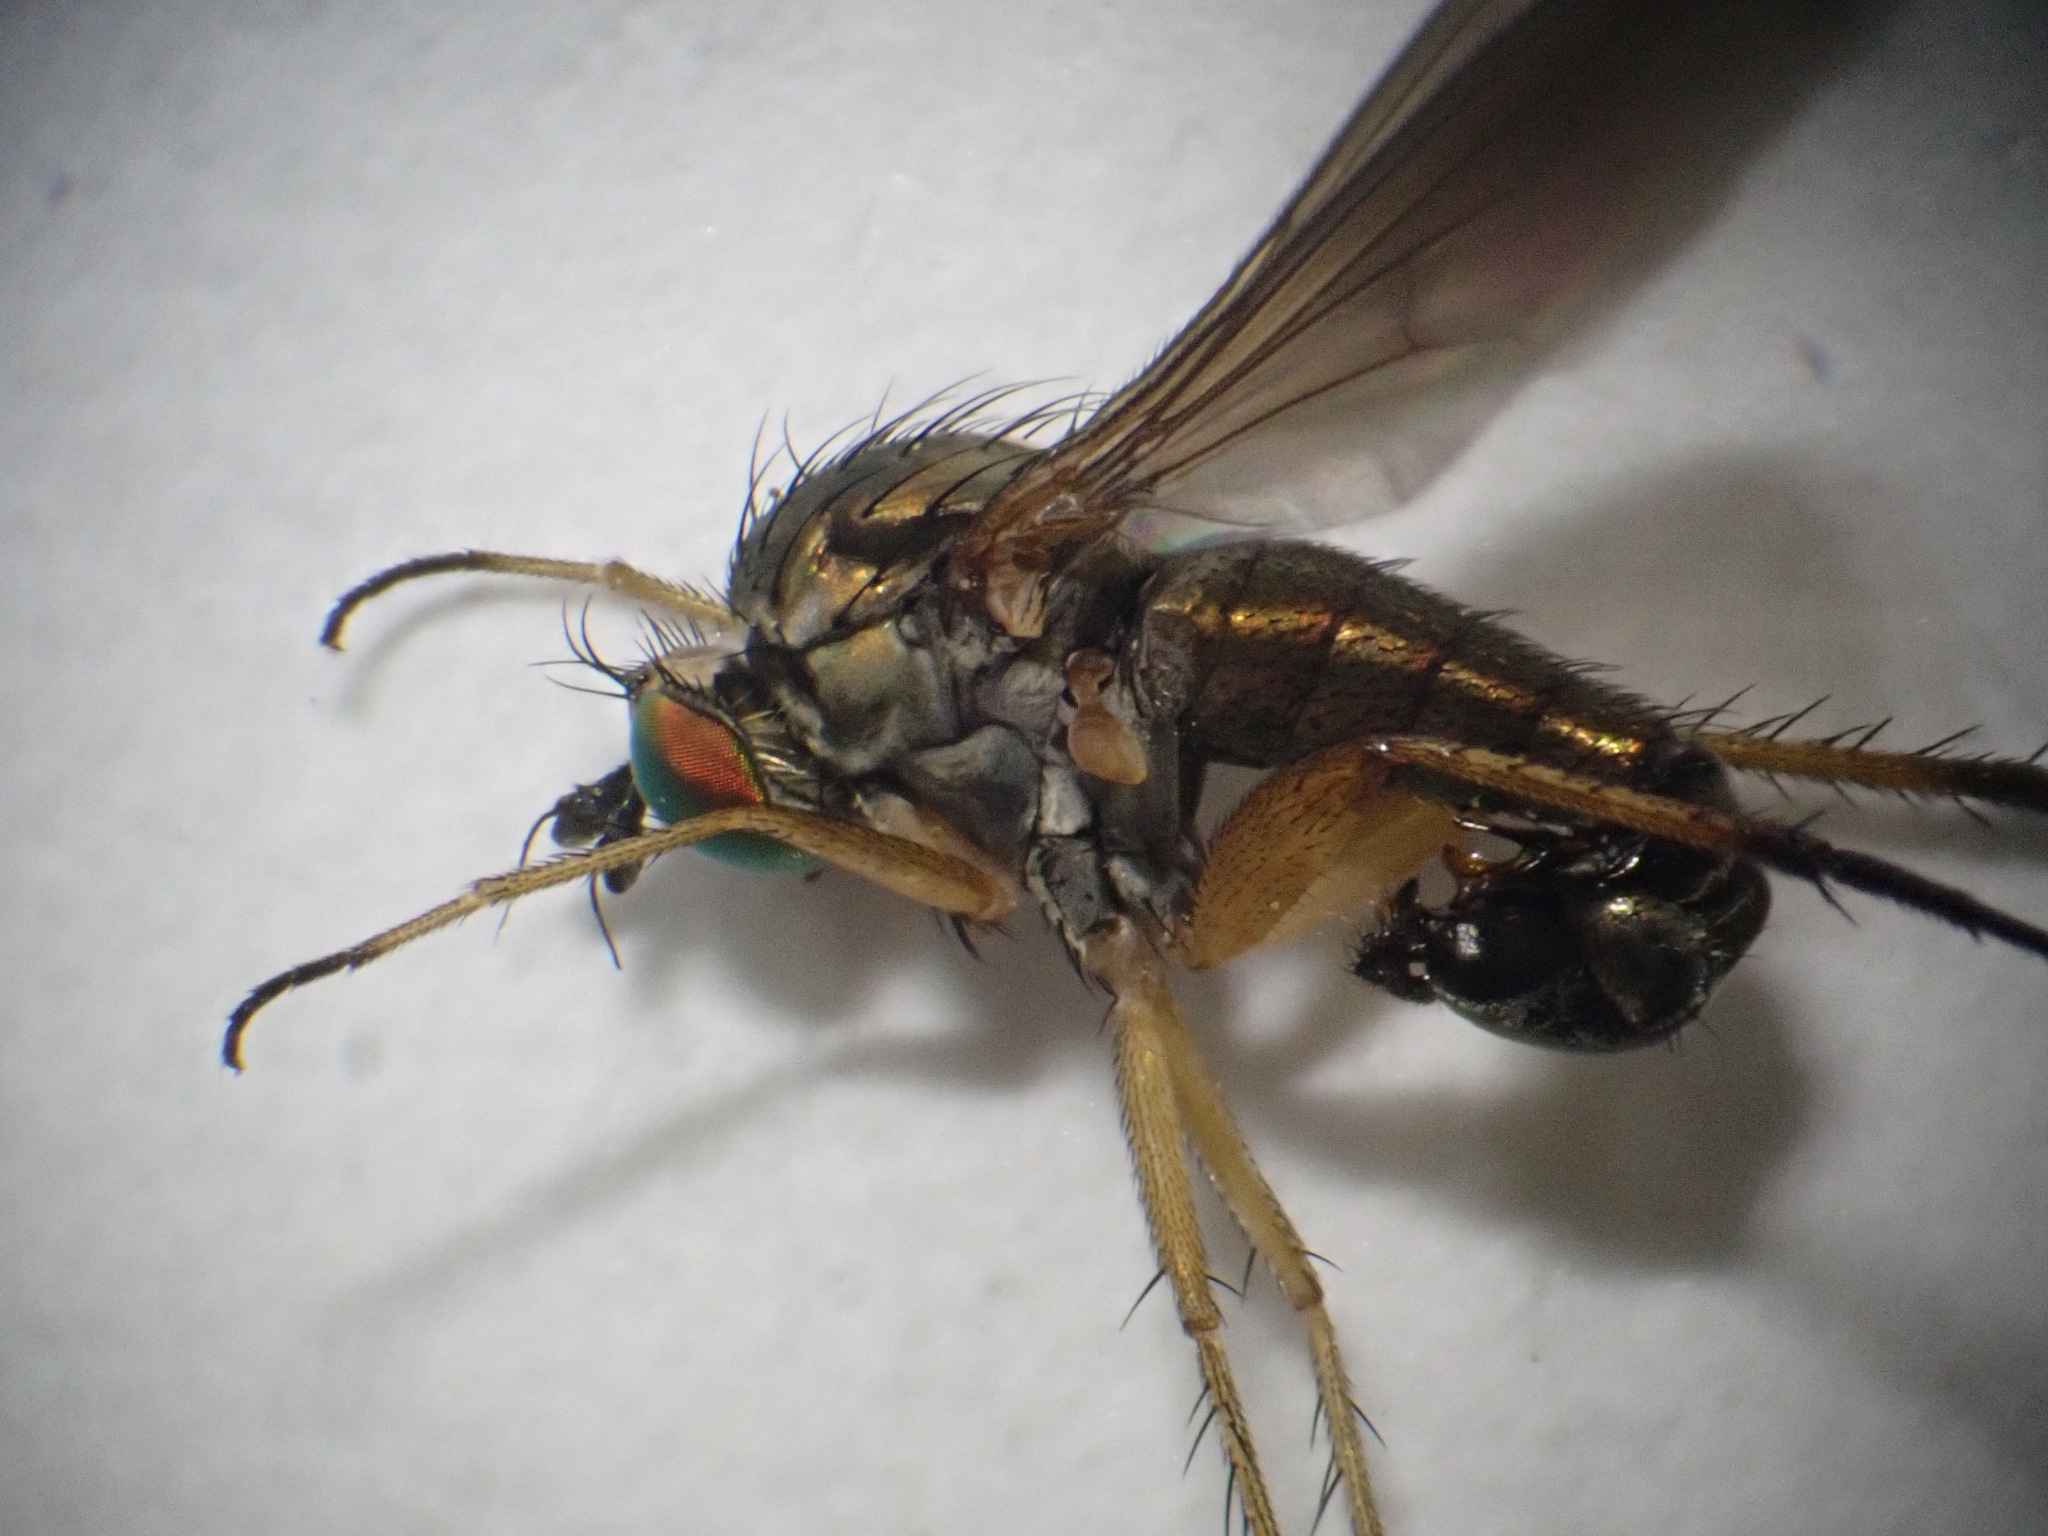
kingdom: Animalia
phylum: Arthropoda
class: Insecta
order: Diptera
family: Dolichopodidae
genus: Hercostomus
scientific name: Hercostomus germanus
